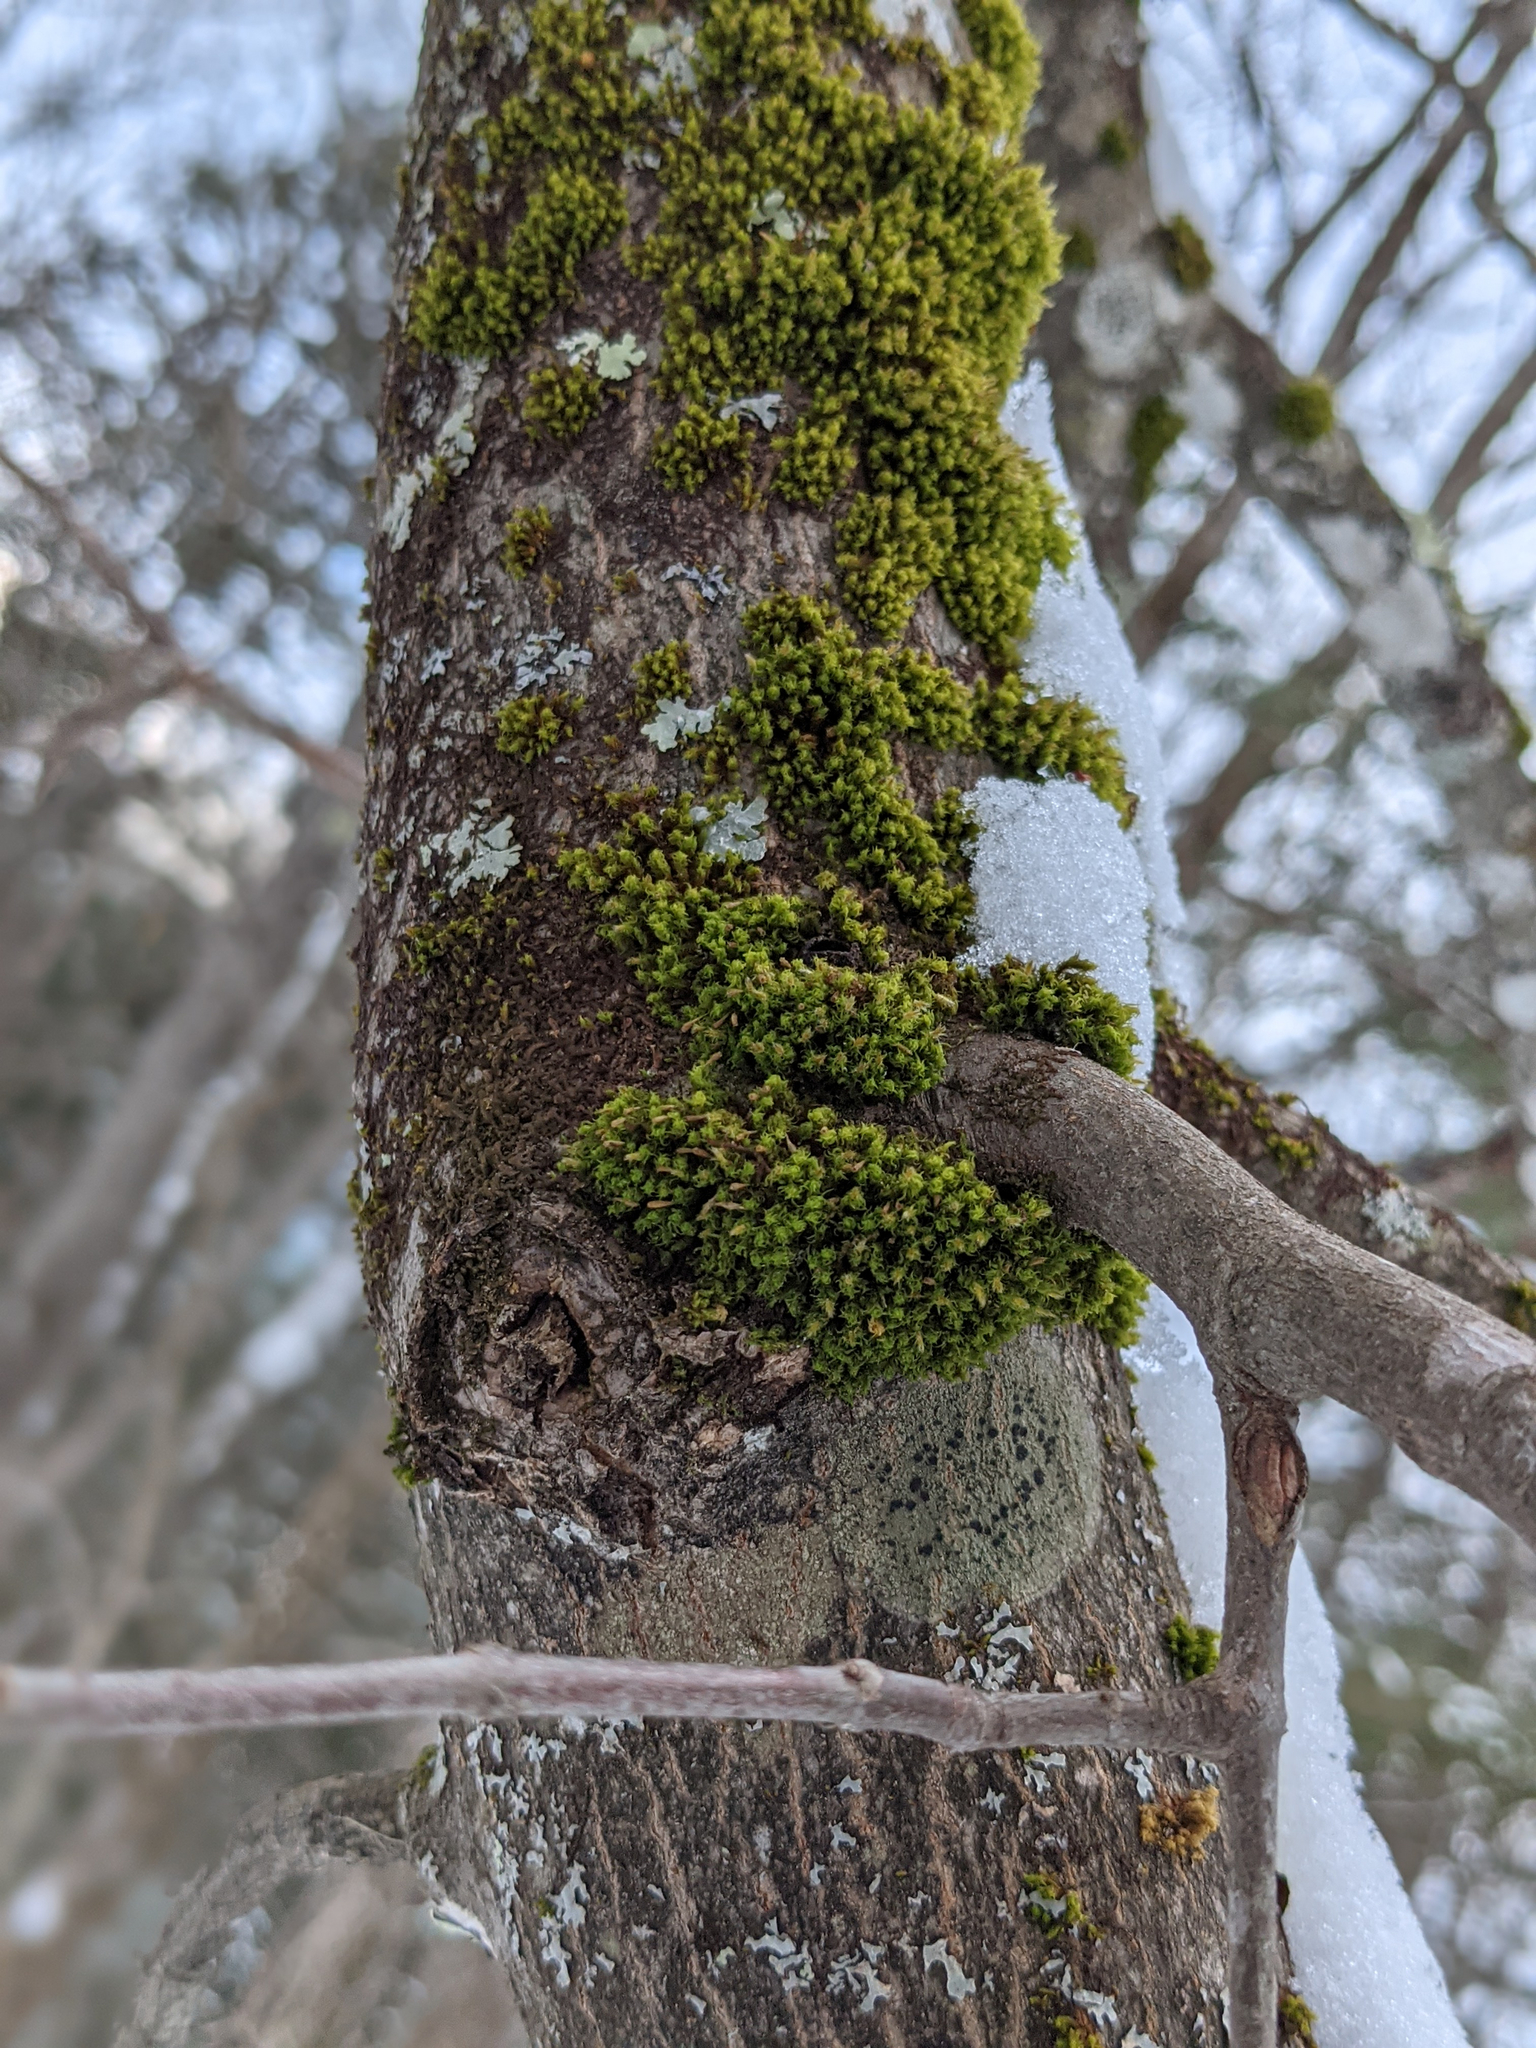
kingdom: Plantae
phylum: Bryophyta
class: Bryopsida
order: Orthotrichales
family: Orthotrichaceae
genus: Ulota
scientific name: Ulota crispa
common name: Crisped pincushion moss
